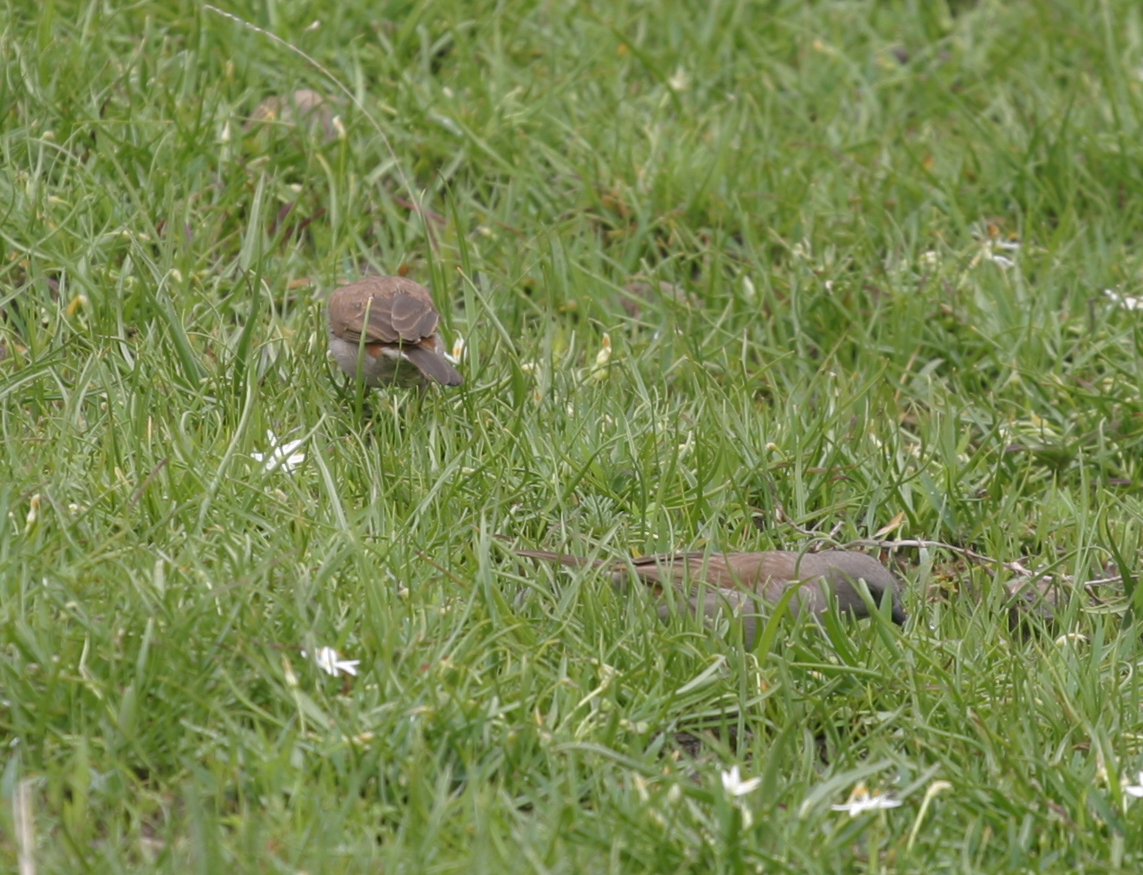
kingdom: Animalia
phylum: Chordata
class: Aves
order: Passeriformes
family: Passeridae
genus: Passer
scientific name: Passer swainsonii
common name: Swainson's sparrow
